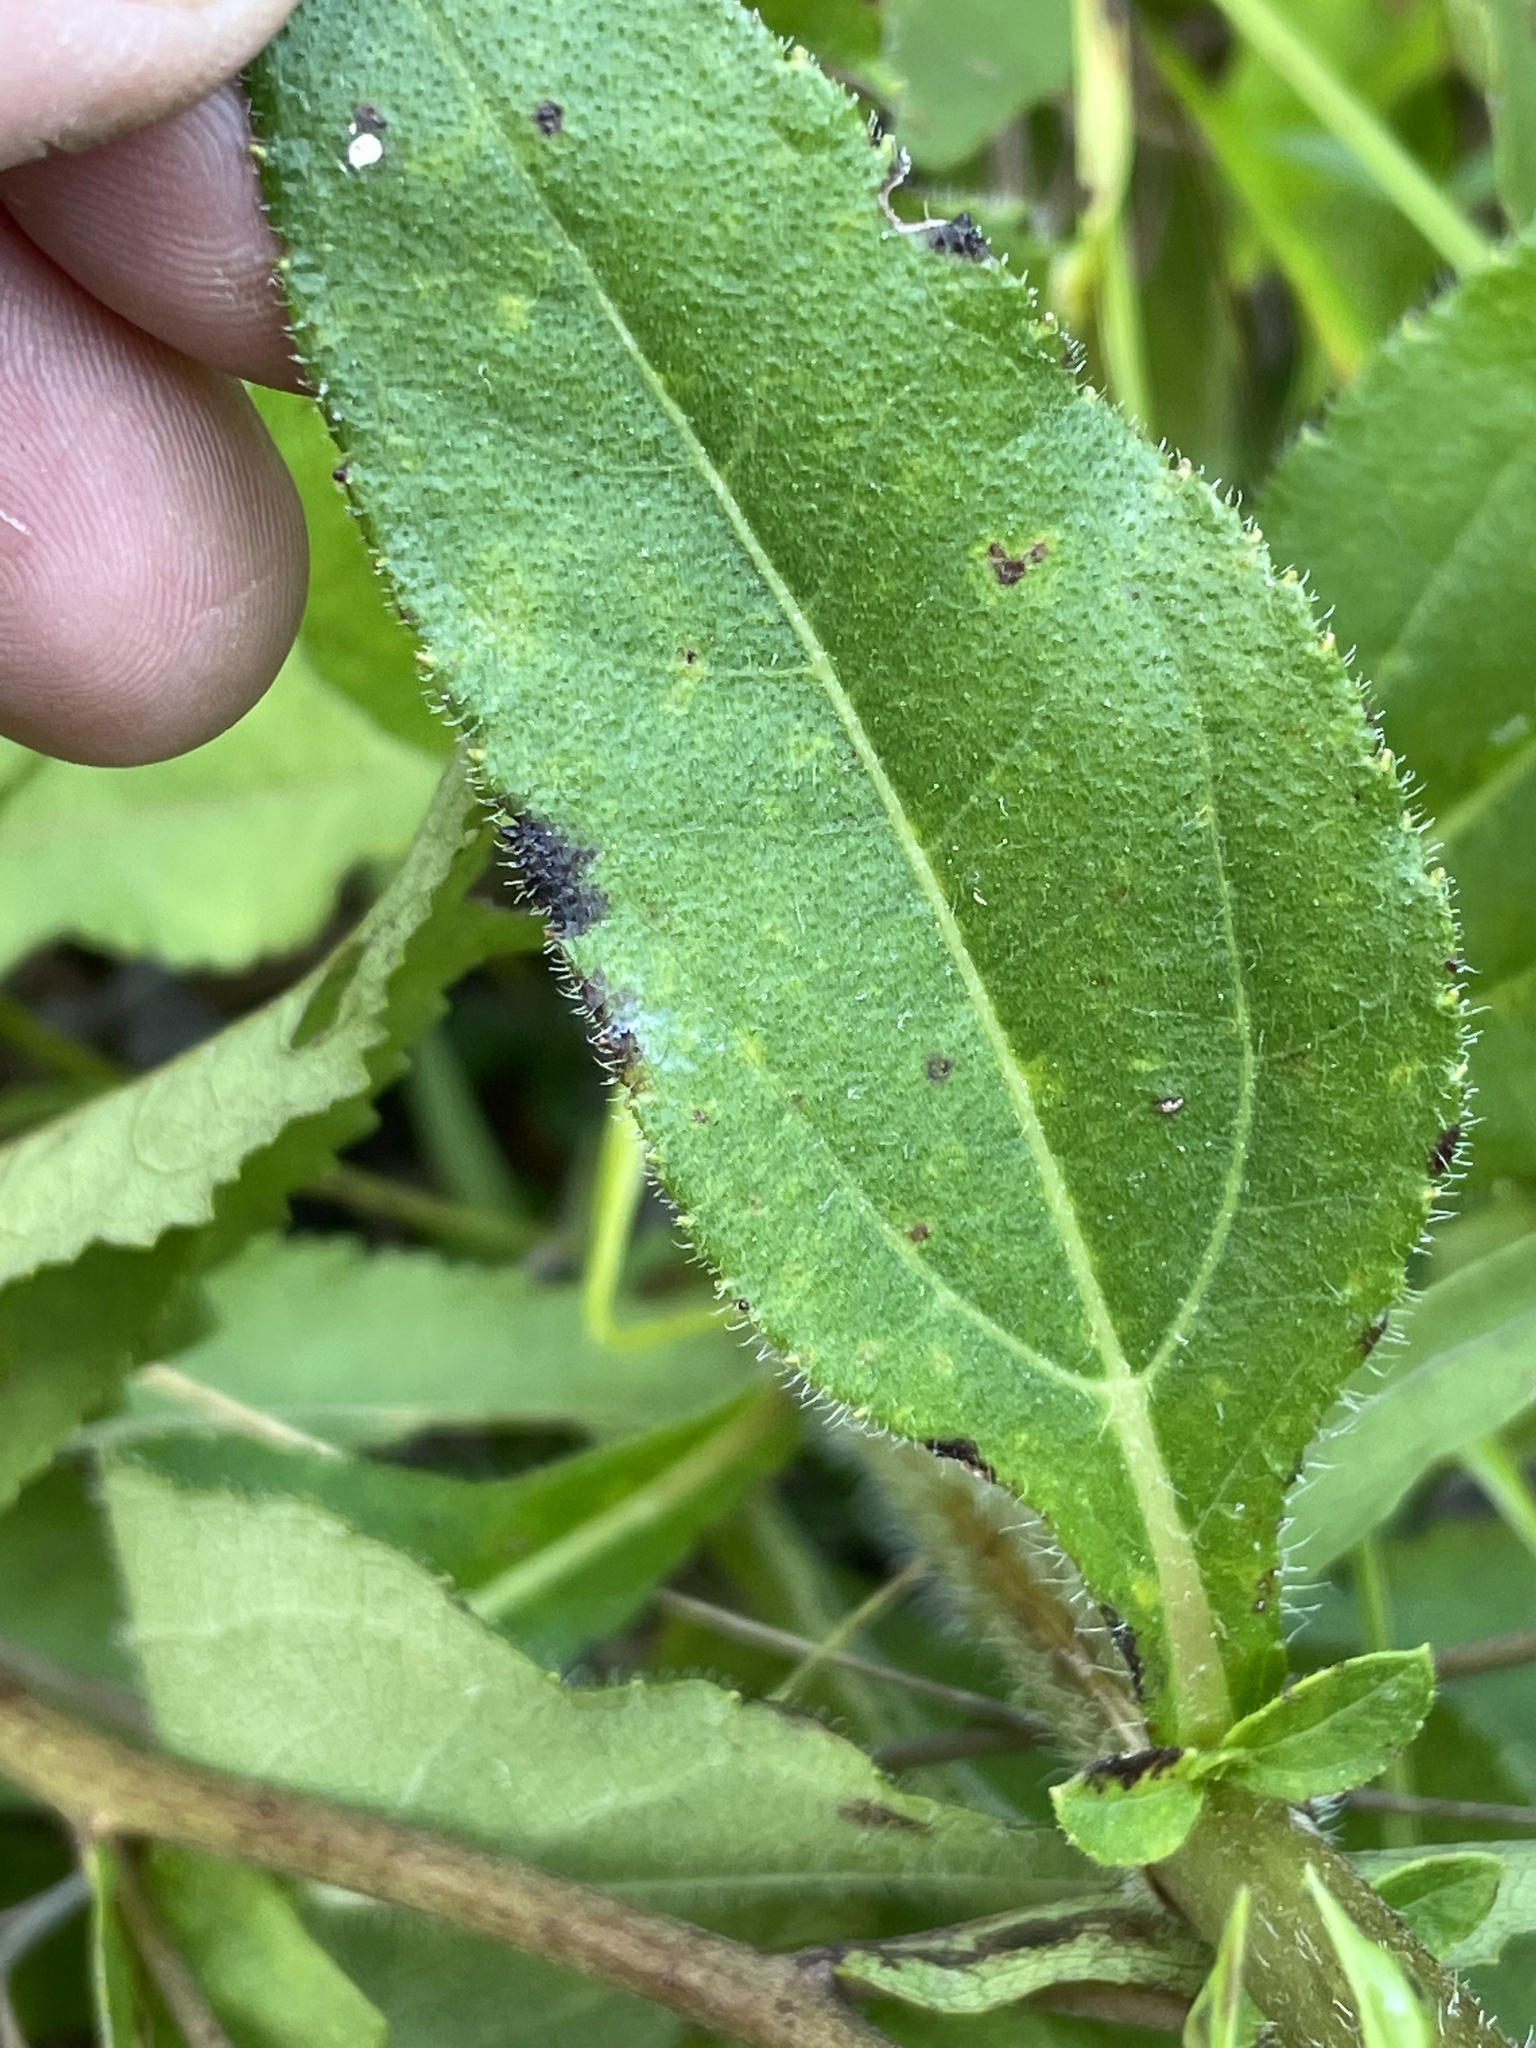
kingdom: Plantae
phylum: Tracheophyta
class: Magnoliopsida
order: Asterales
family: Asteraceae
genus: Helianthus
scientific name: Helianthus atrorubens
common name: Dark-eyed sunflower
